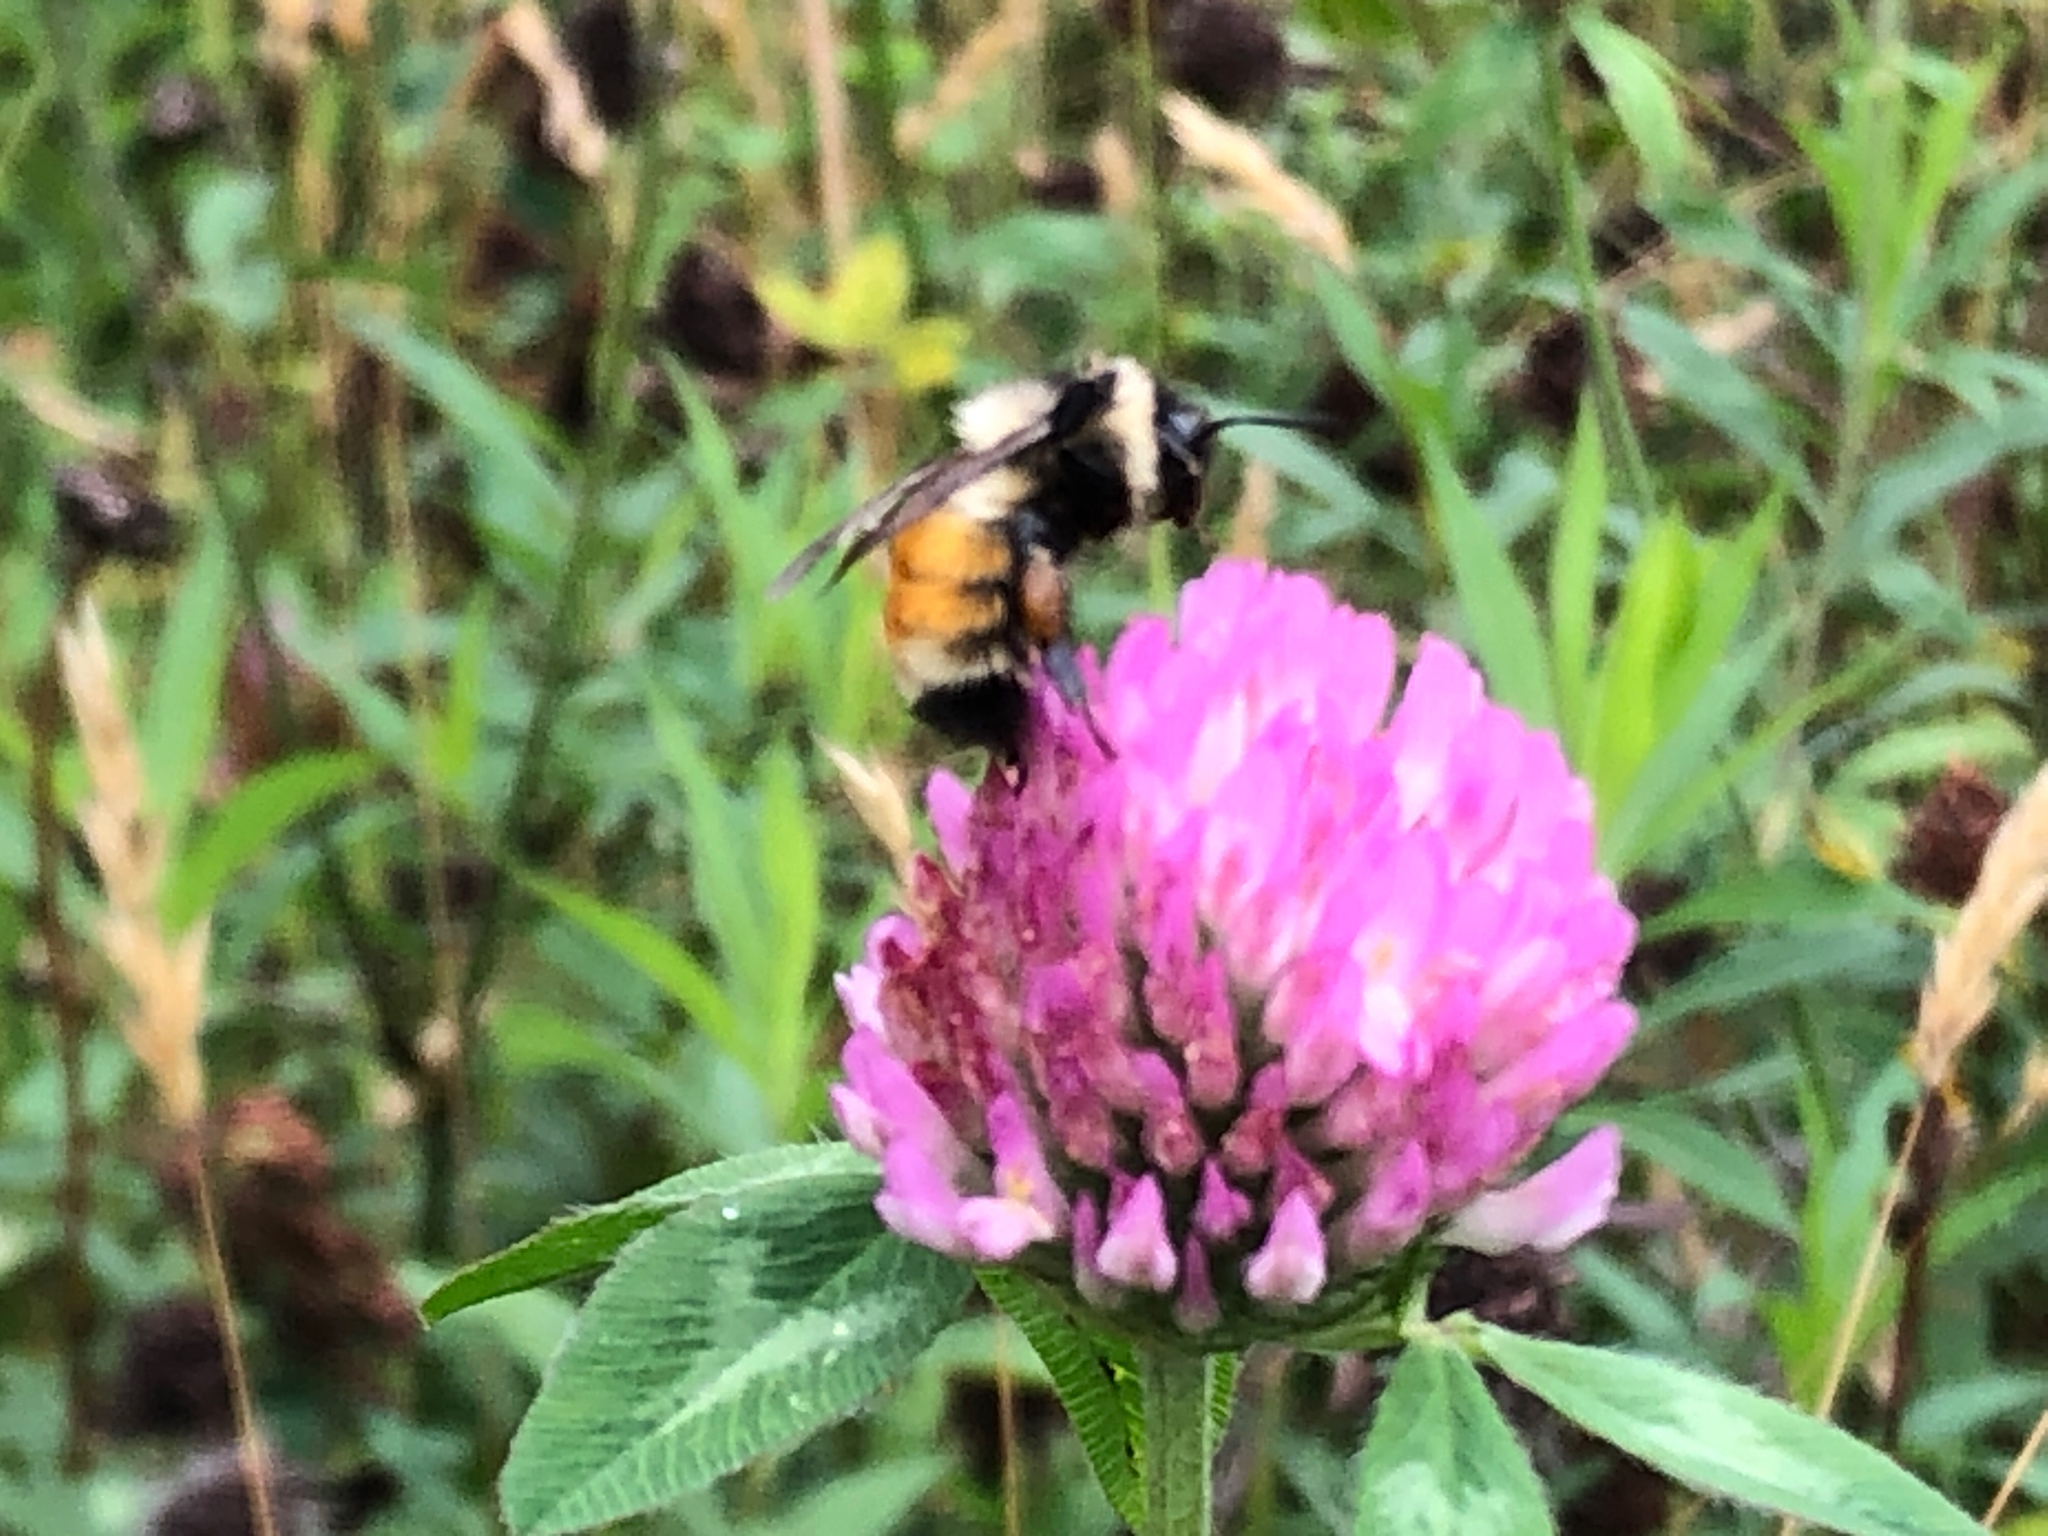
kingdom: Animalia
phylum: Arthropoda
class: Insecta
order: Hymenoptera
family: Apidae
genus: Bombus
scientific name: Bombus ternarius
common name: Tri-colored bumble bee
